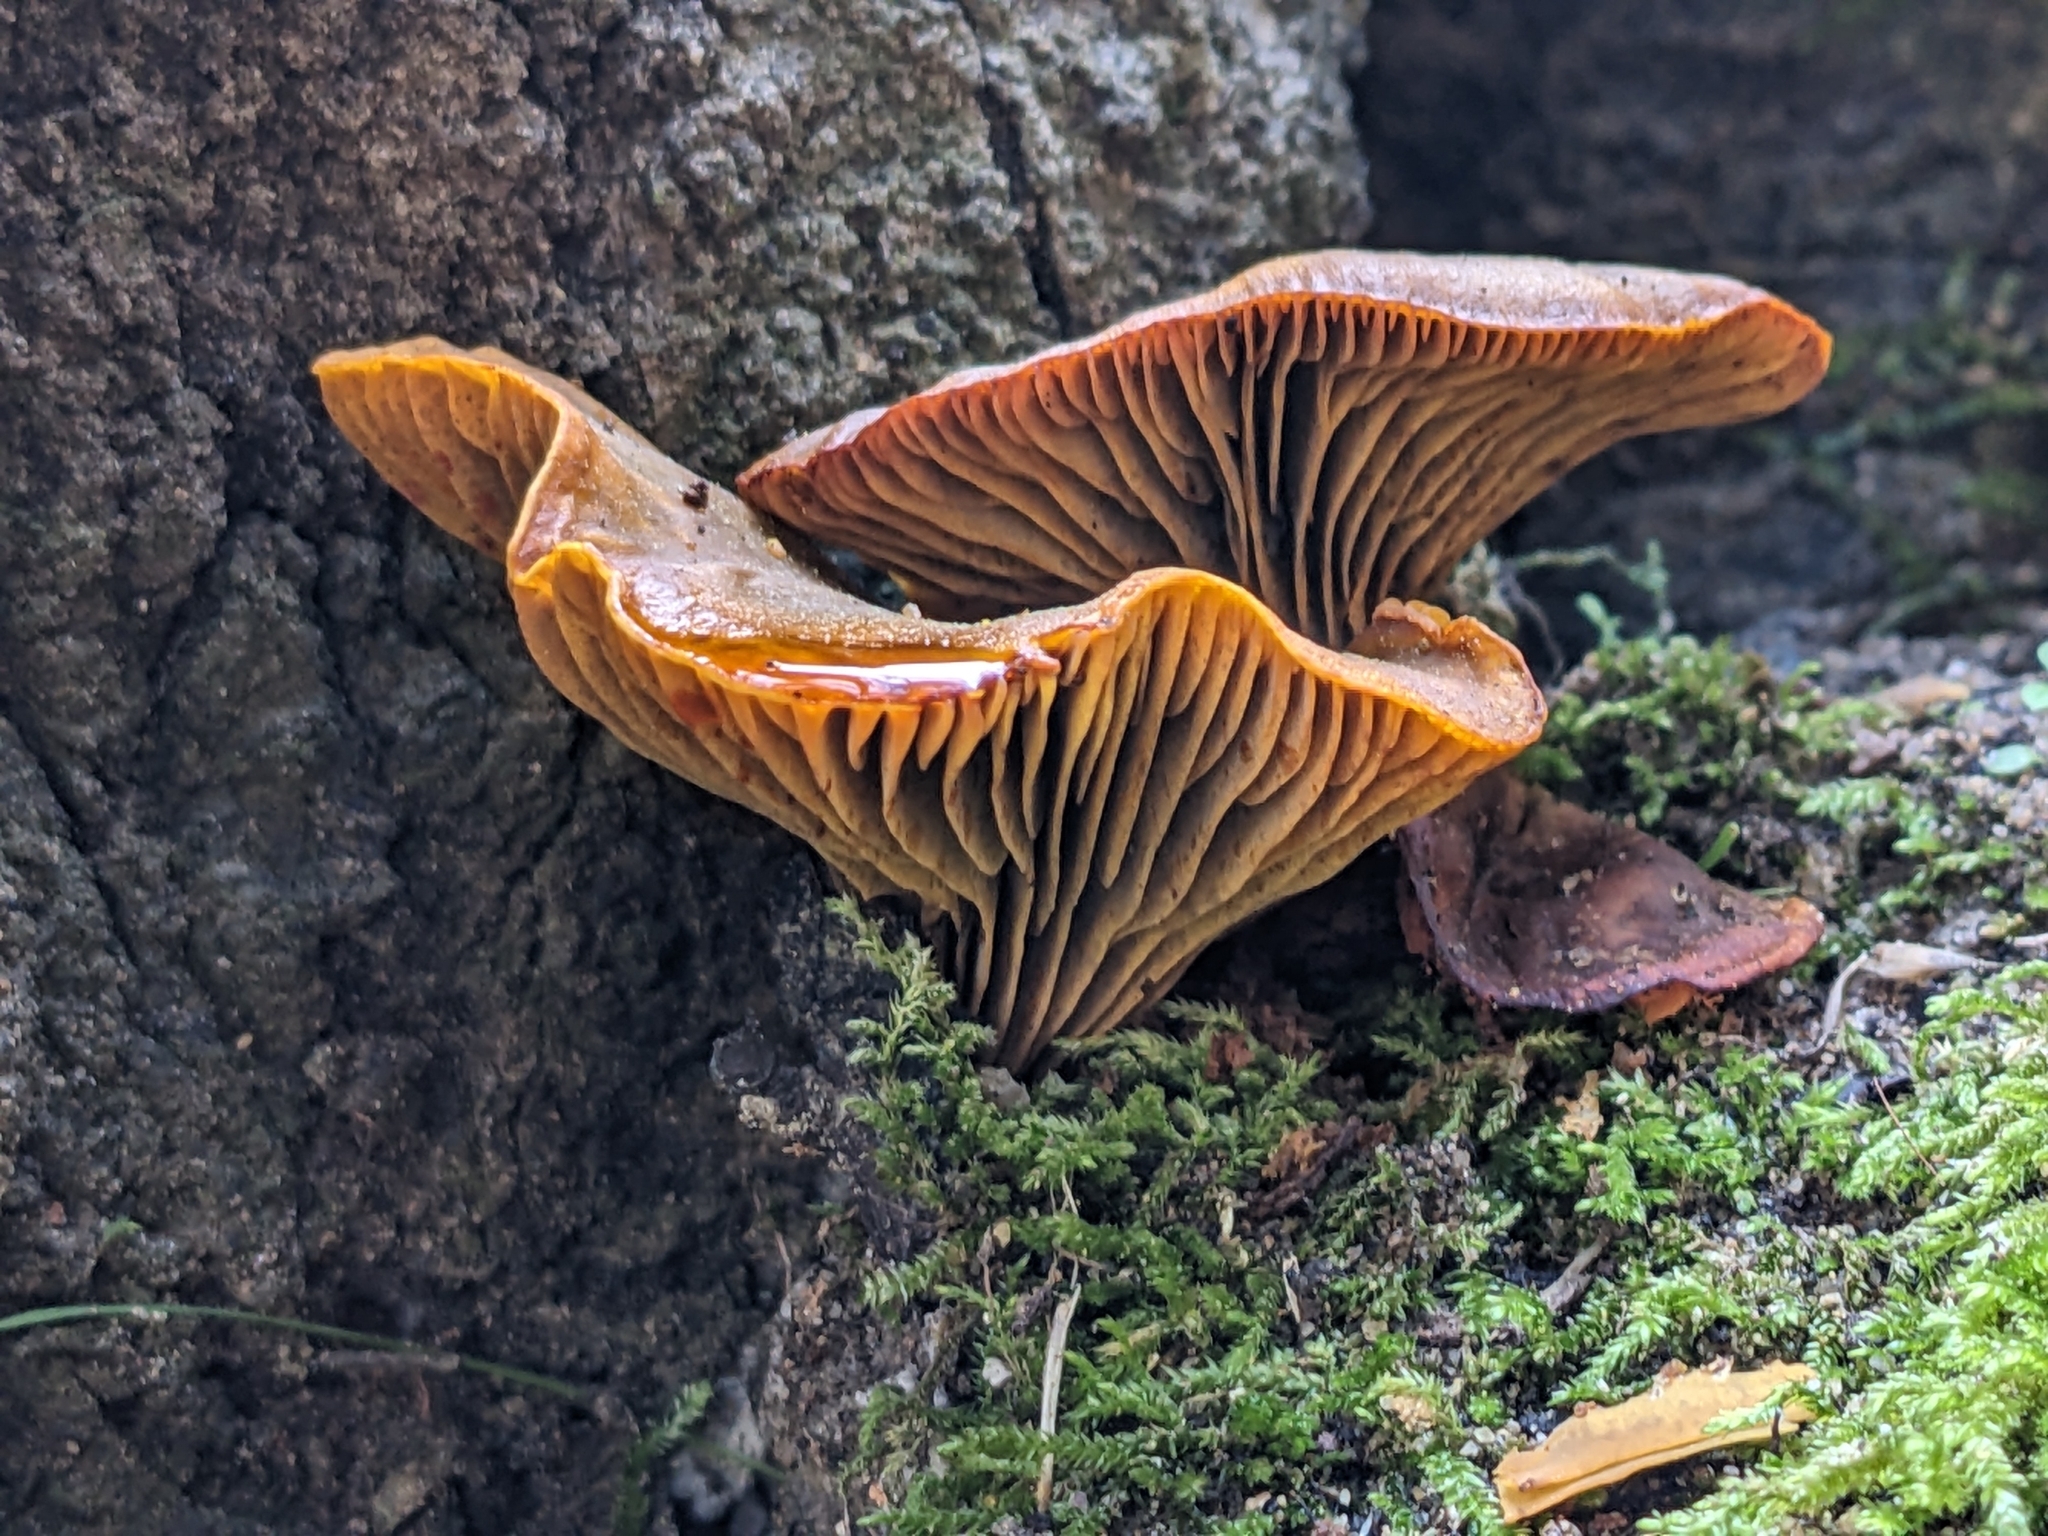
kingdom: Fungi
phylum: Basidiomycota
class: Agaricomycetes
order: Agaricales
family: Omphalotaceae
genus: Omphalotus
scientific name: Omphalotus olivascens
